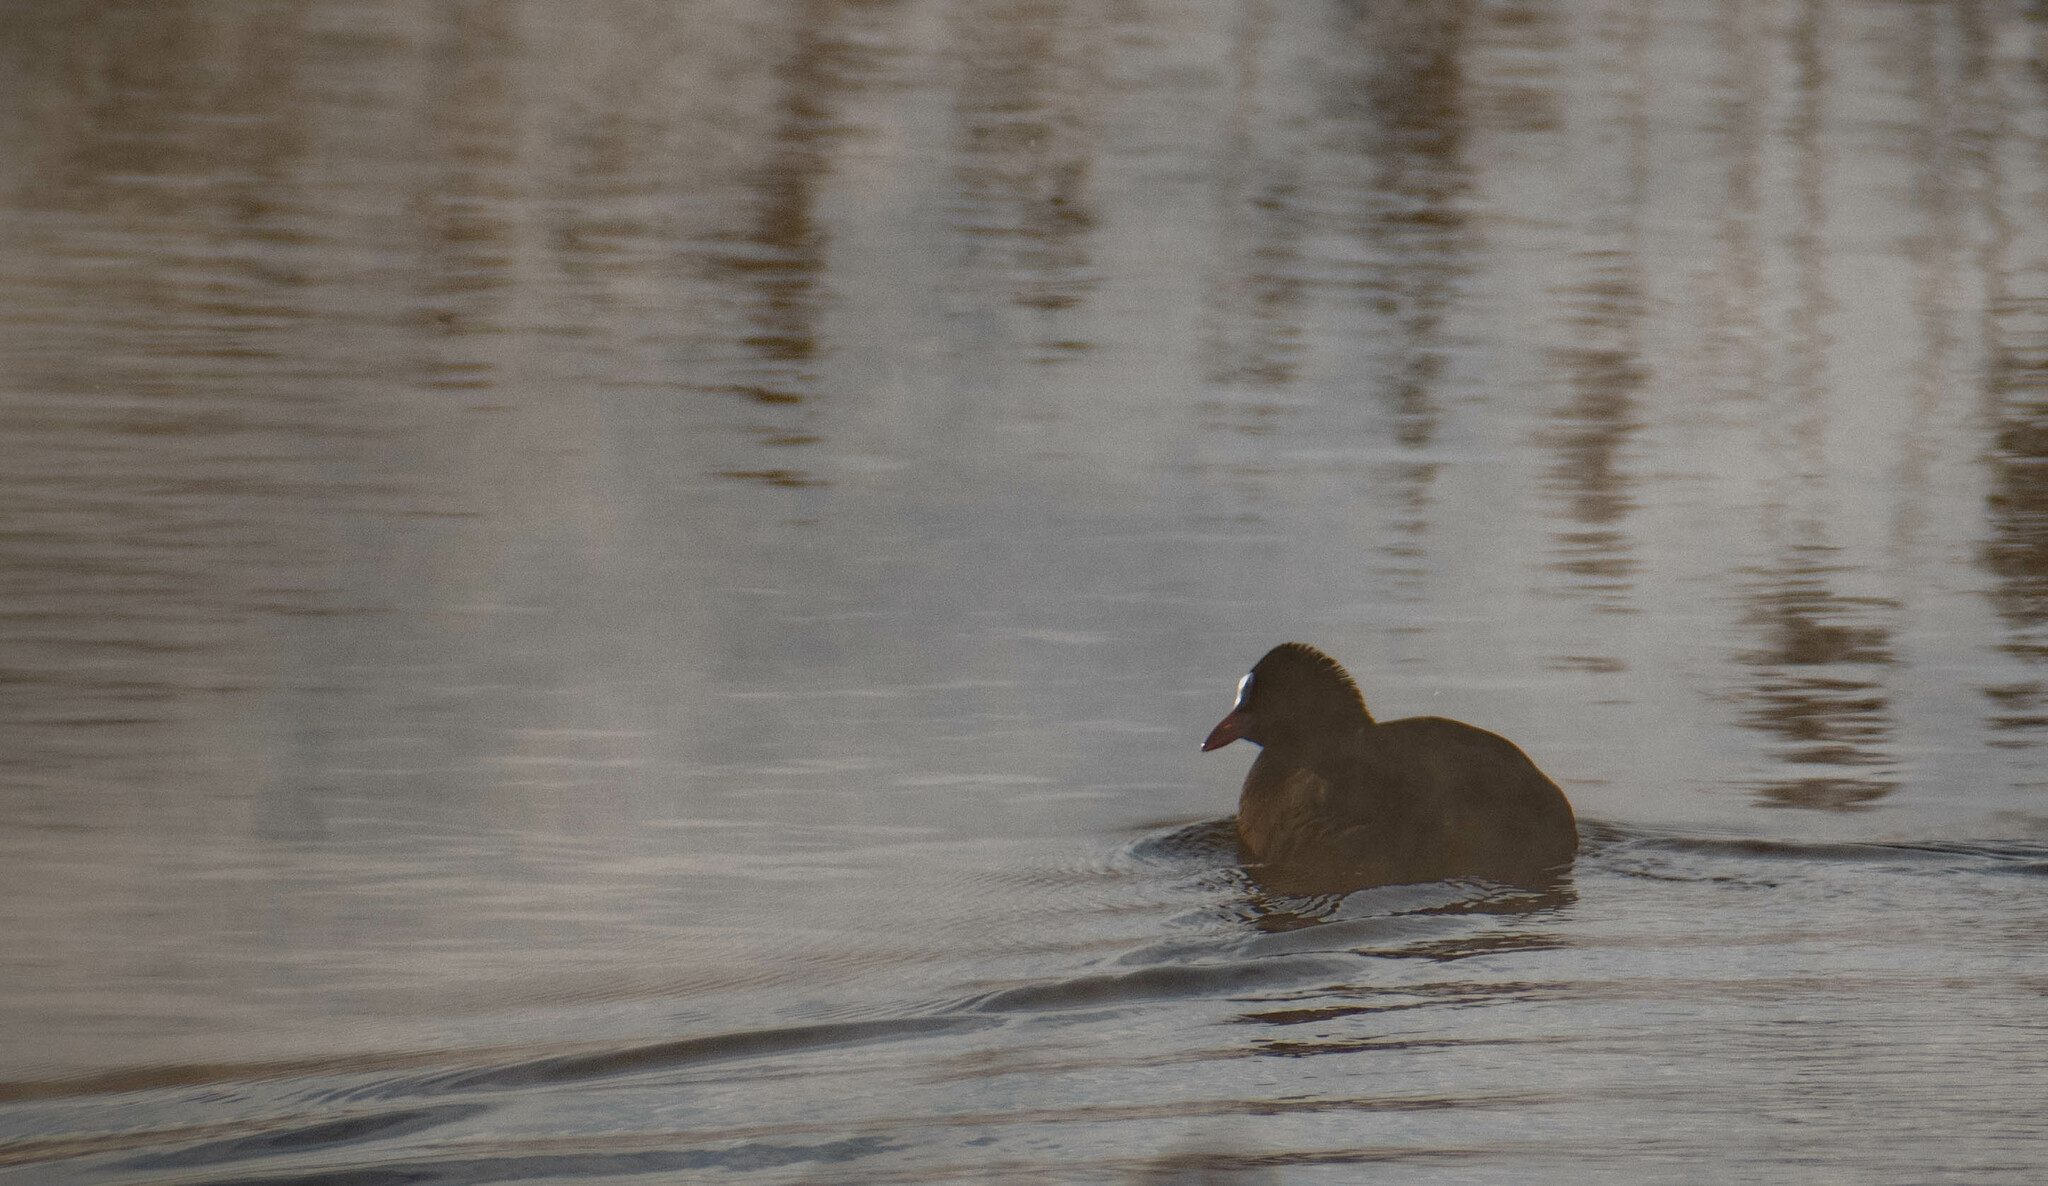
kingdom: Animalia
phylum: Chordata
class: Aves
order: Gruiformes
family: Rallidae
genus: Fulica
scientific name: Fulica atra
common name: Eurasian coot
